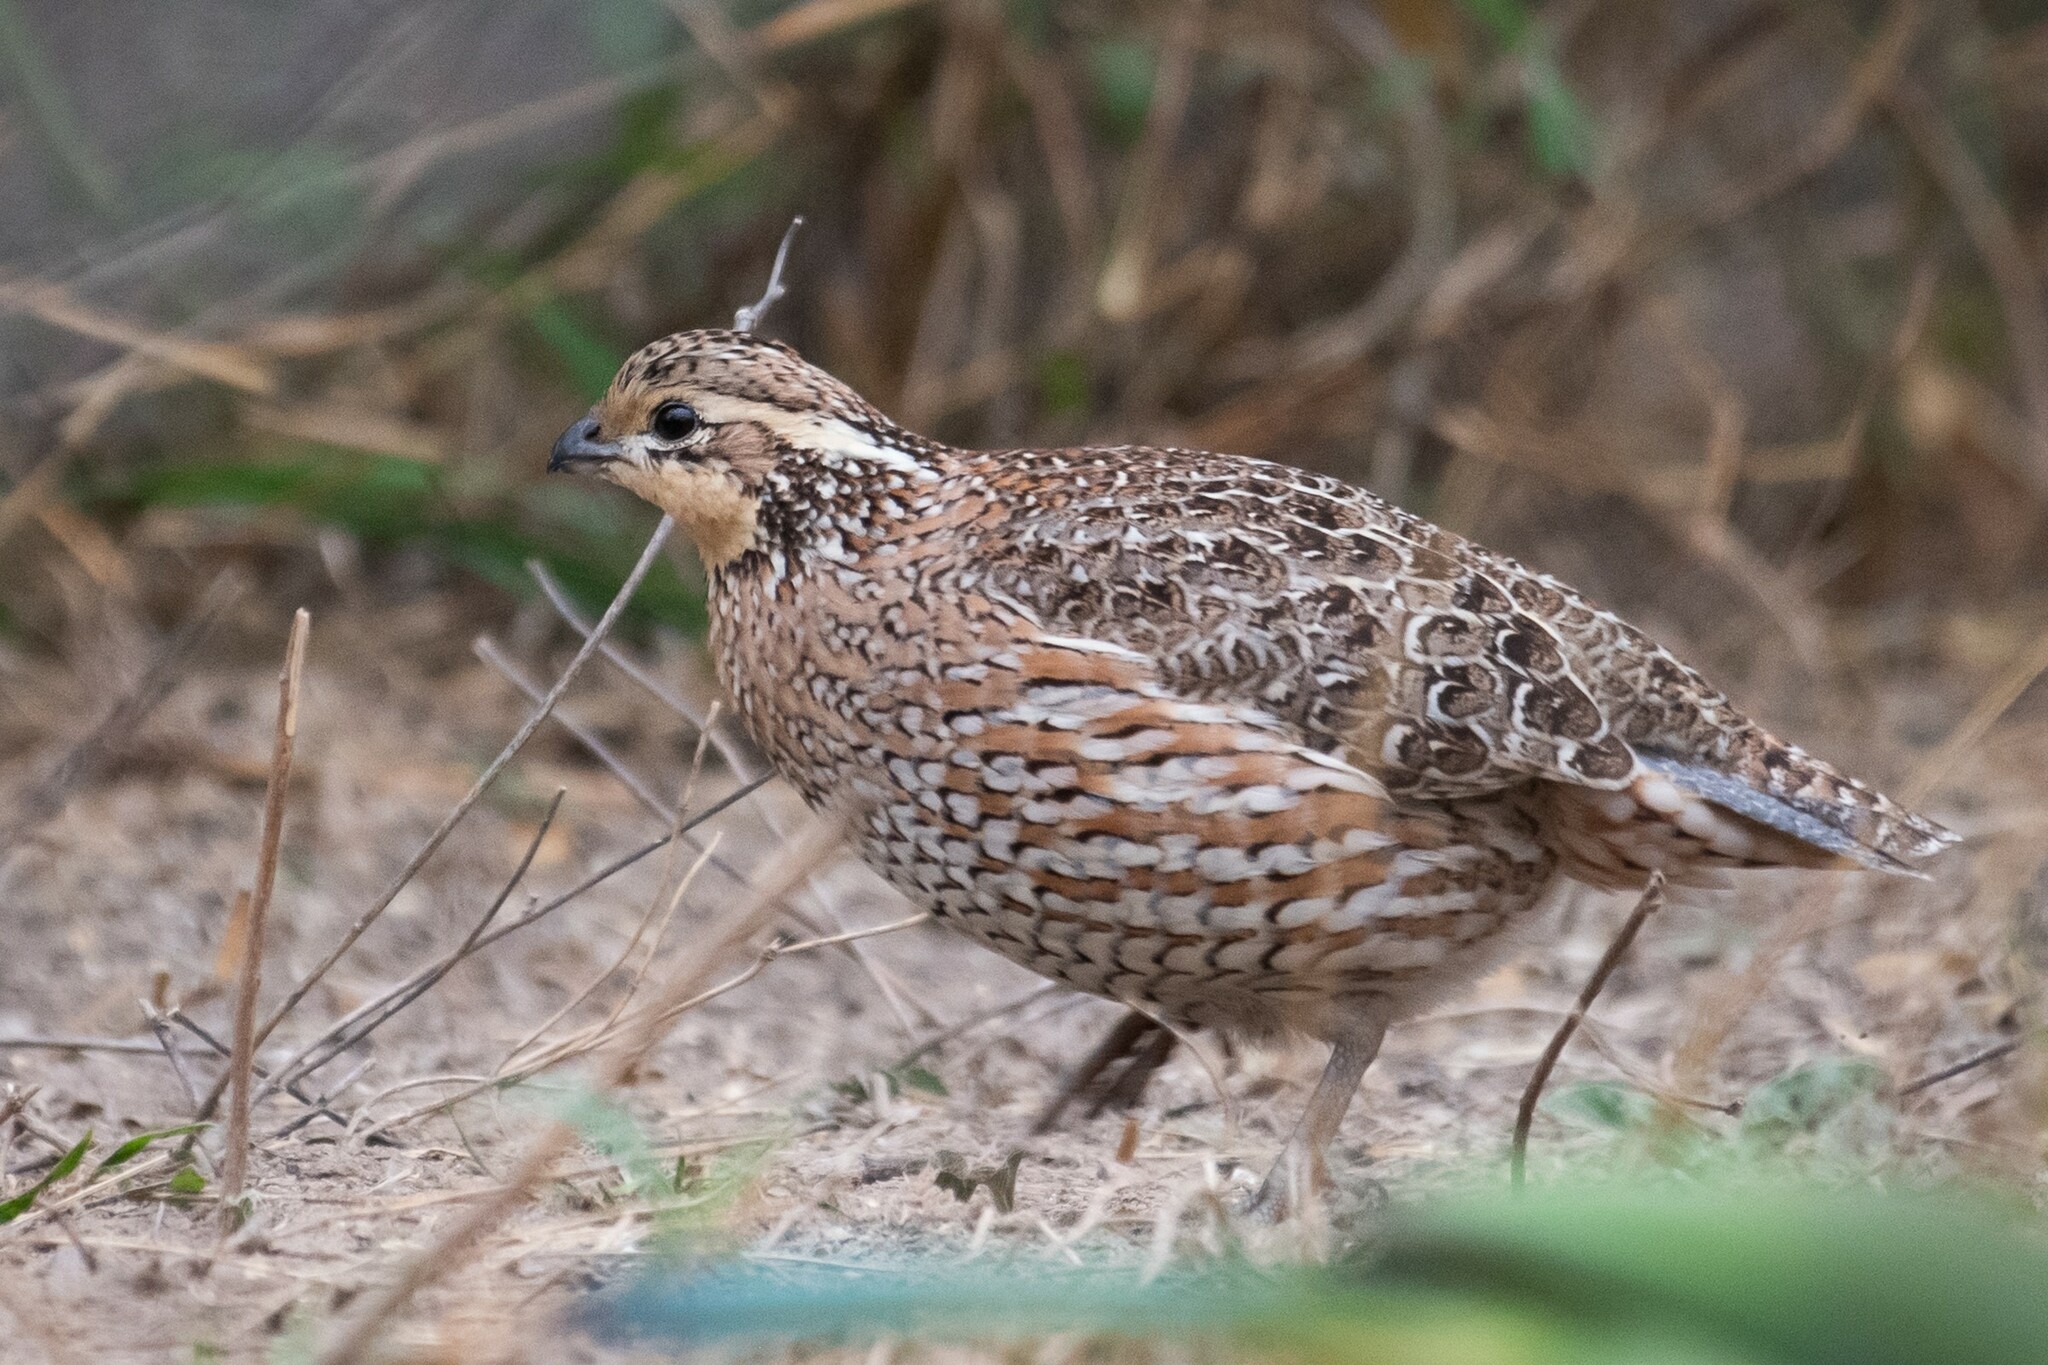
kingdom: Animalia
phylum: Chordata
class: Aves
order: Galliformes
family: Odontophoridae
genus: Colinus
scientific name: Colinus virginianus
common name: Northern bobwhite
